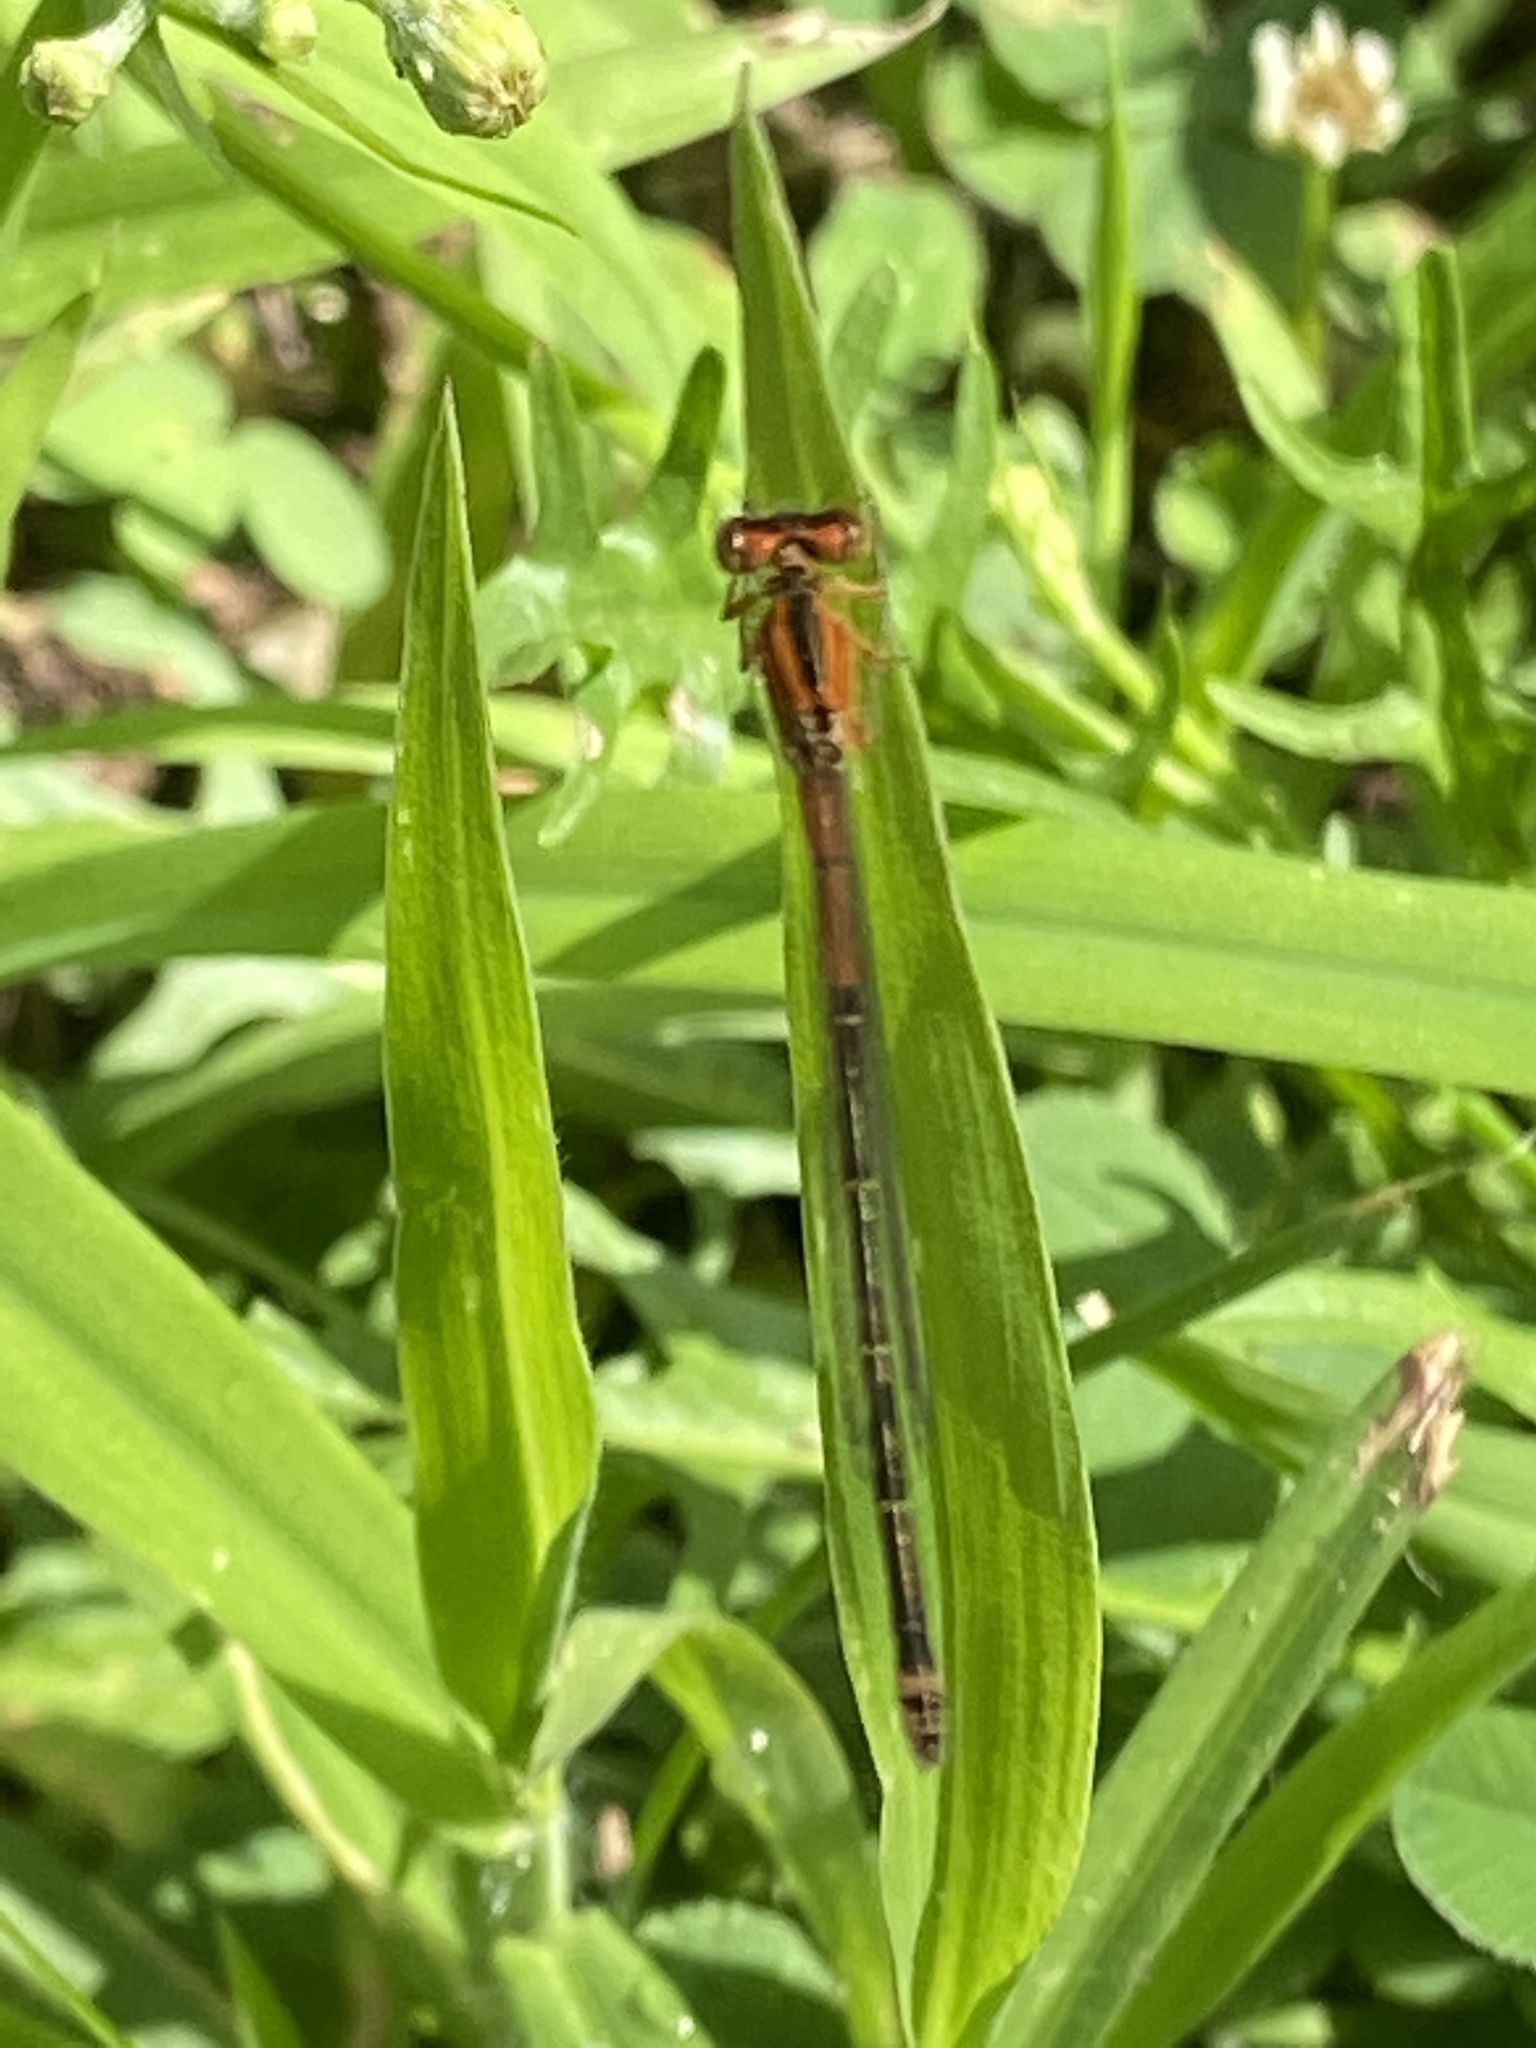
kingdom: Animalia
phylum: Arthropoda
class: Insecta
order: Odonata
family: Coenagrionidae
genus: Ischnura
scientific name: Ischnura verticalis
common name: Eastern forktail
